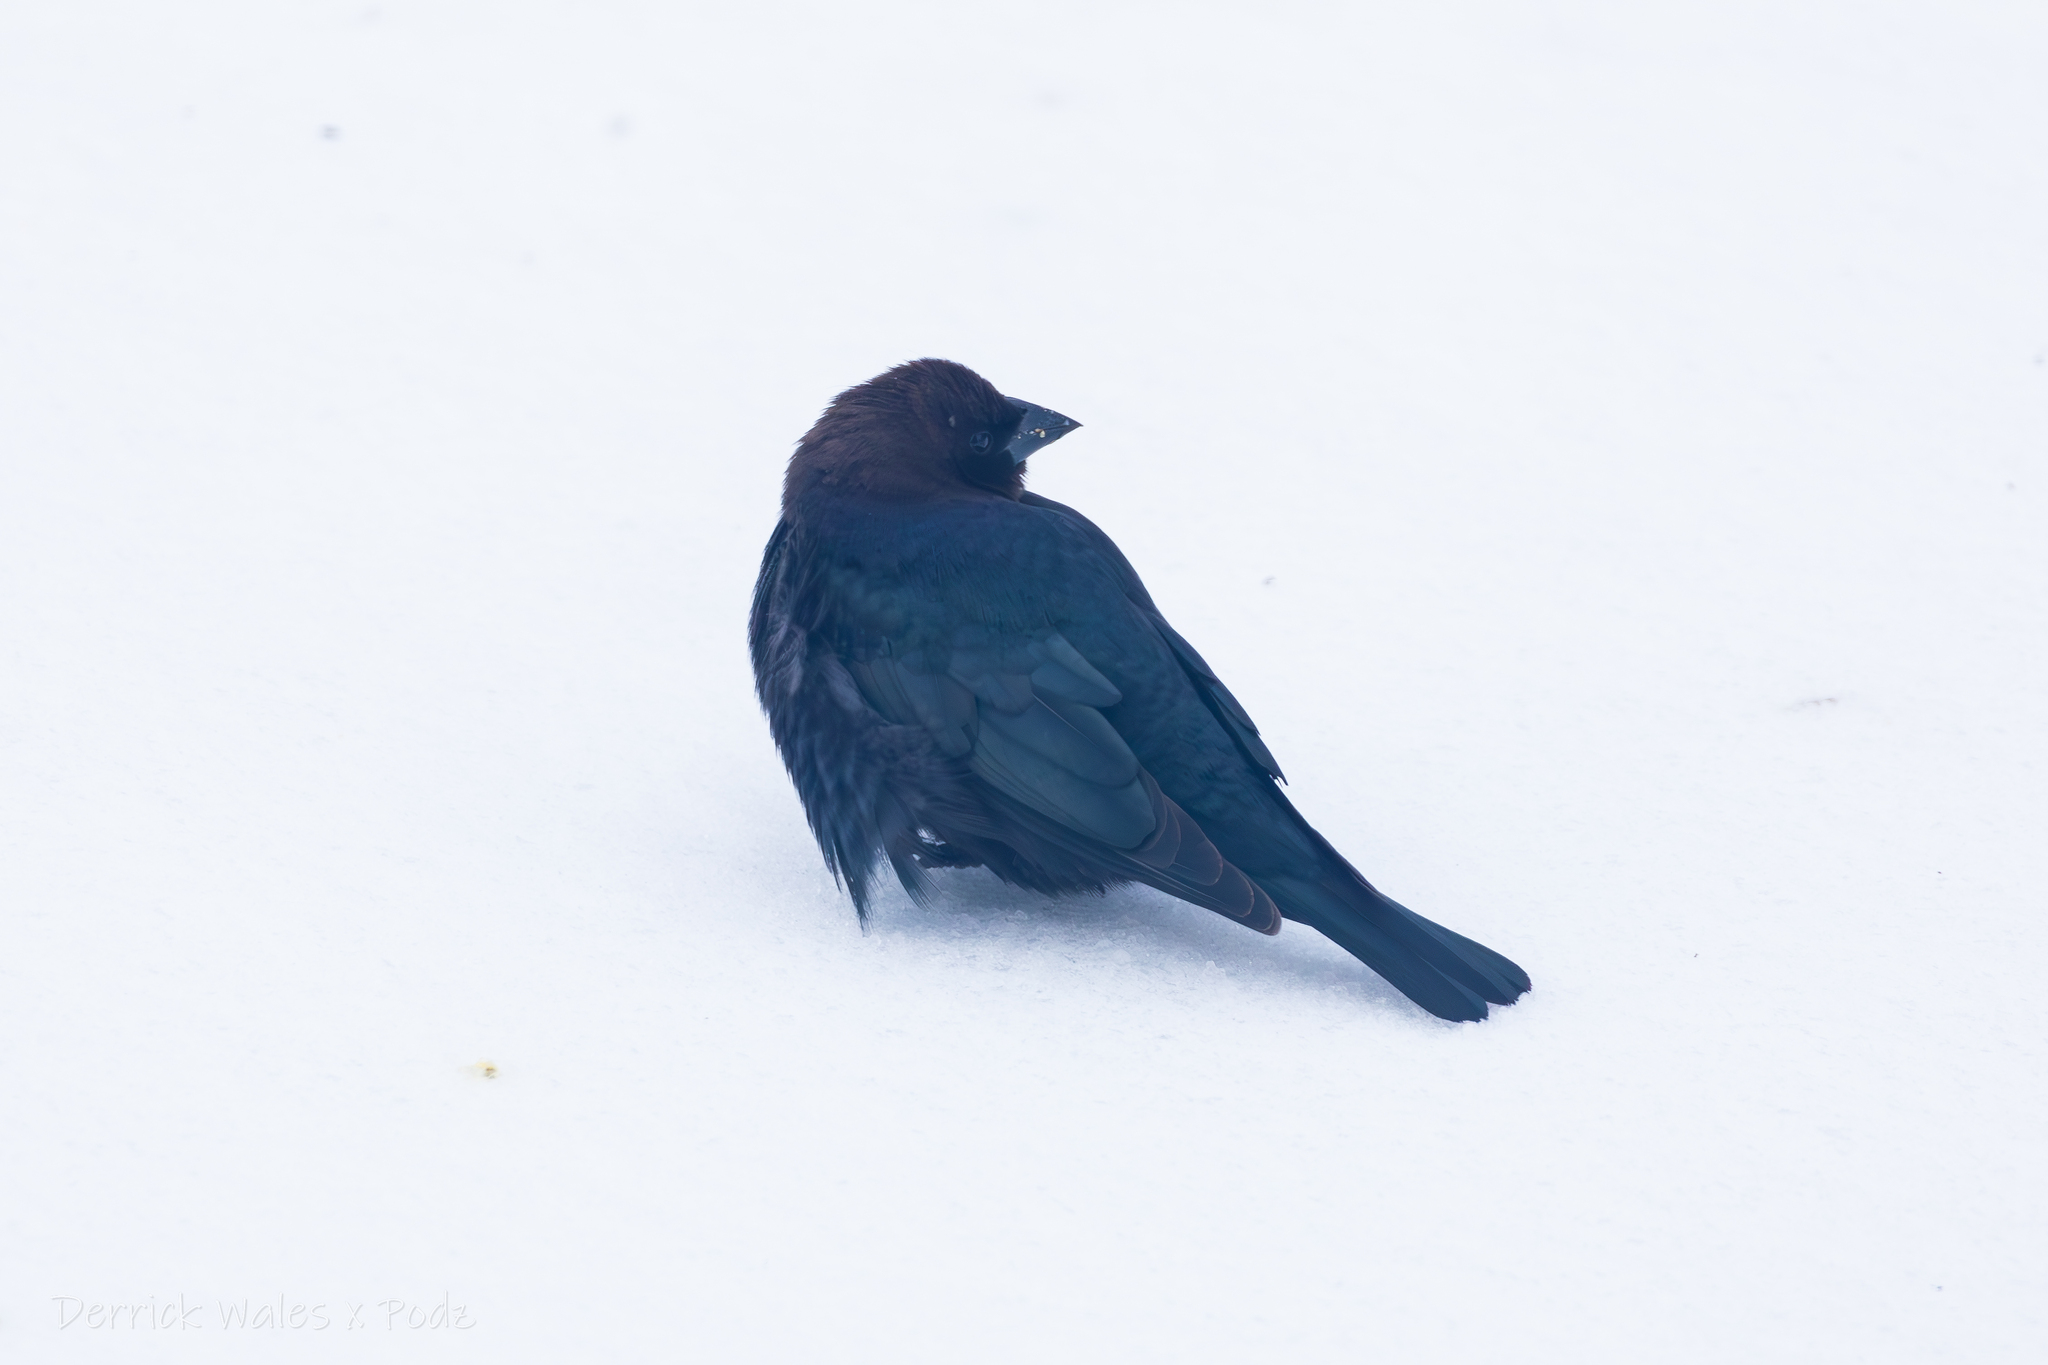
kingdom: Animalia
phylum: Chordata
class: Aves
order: Passeriformes
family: Icteridae
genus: Molothrus
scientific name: Molothrus ater
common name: Brown-headed cowbird
